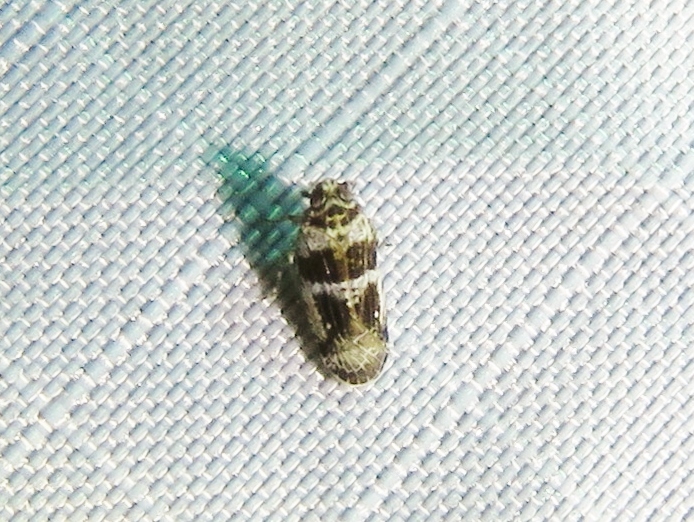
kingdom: Animalia
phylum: Arthropoda
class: Insecta
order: Hemiptera
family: Achilidae
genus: Catonia
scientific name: Catonia texana
